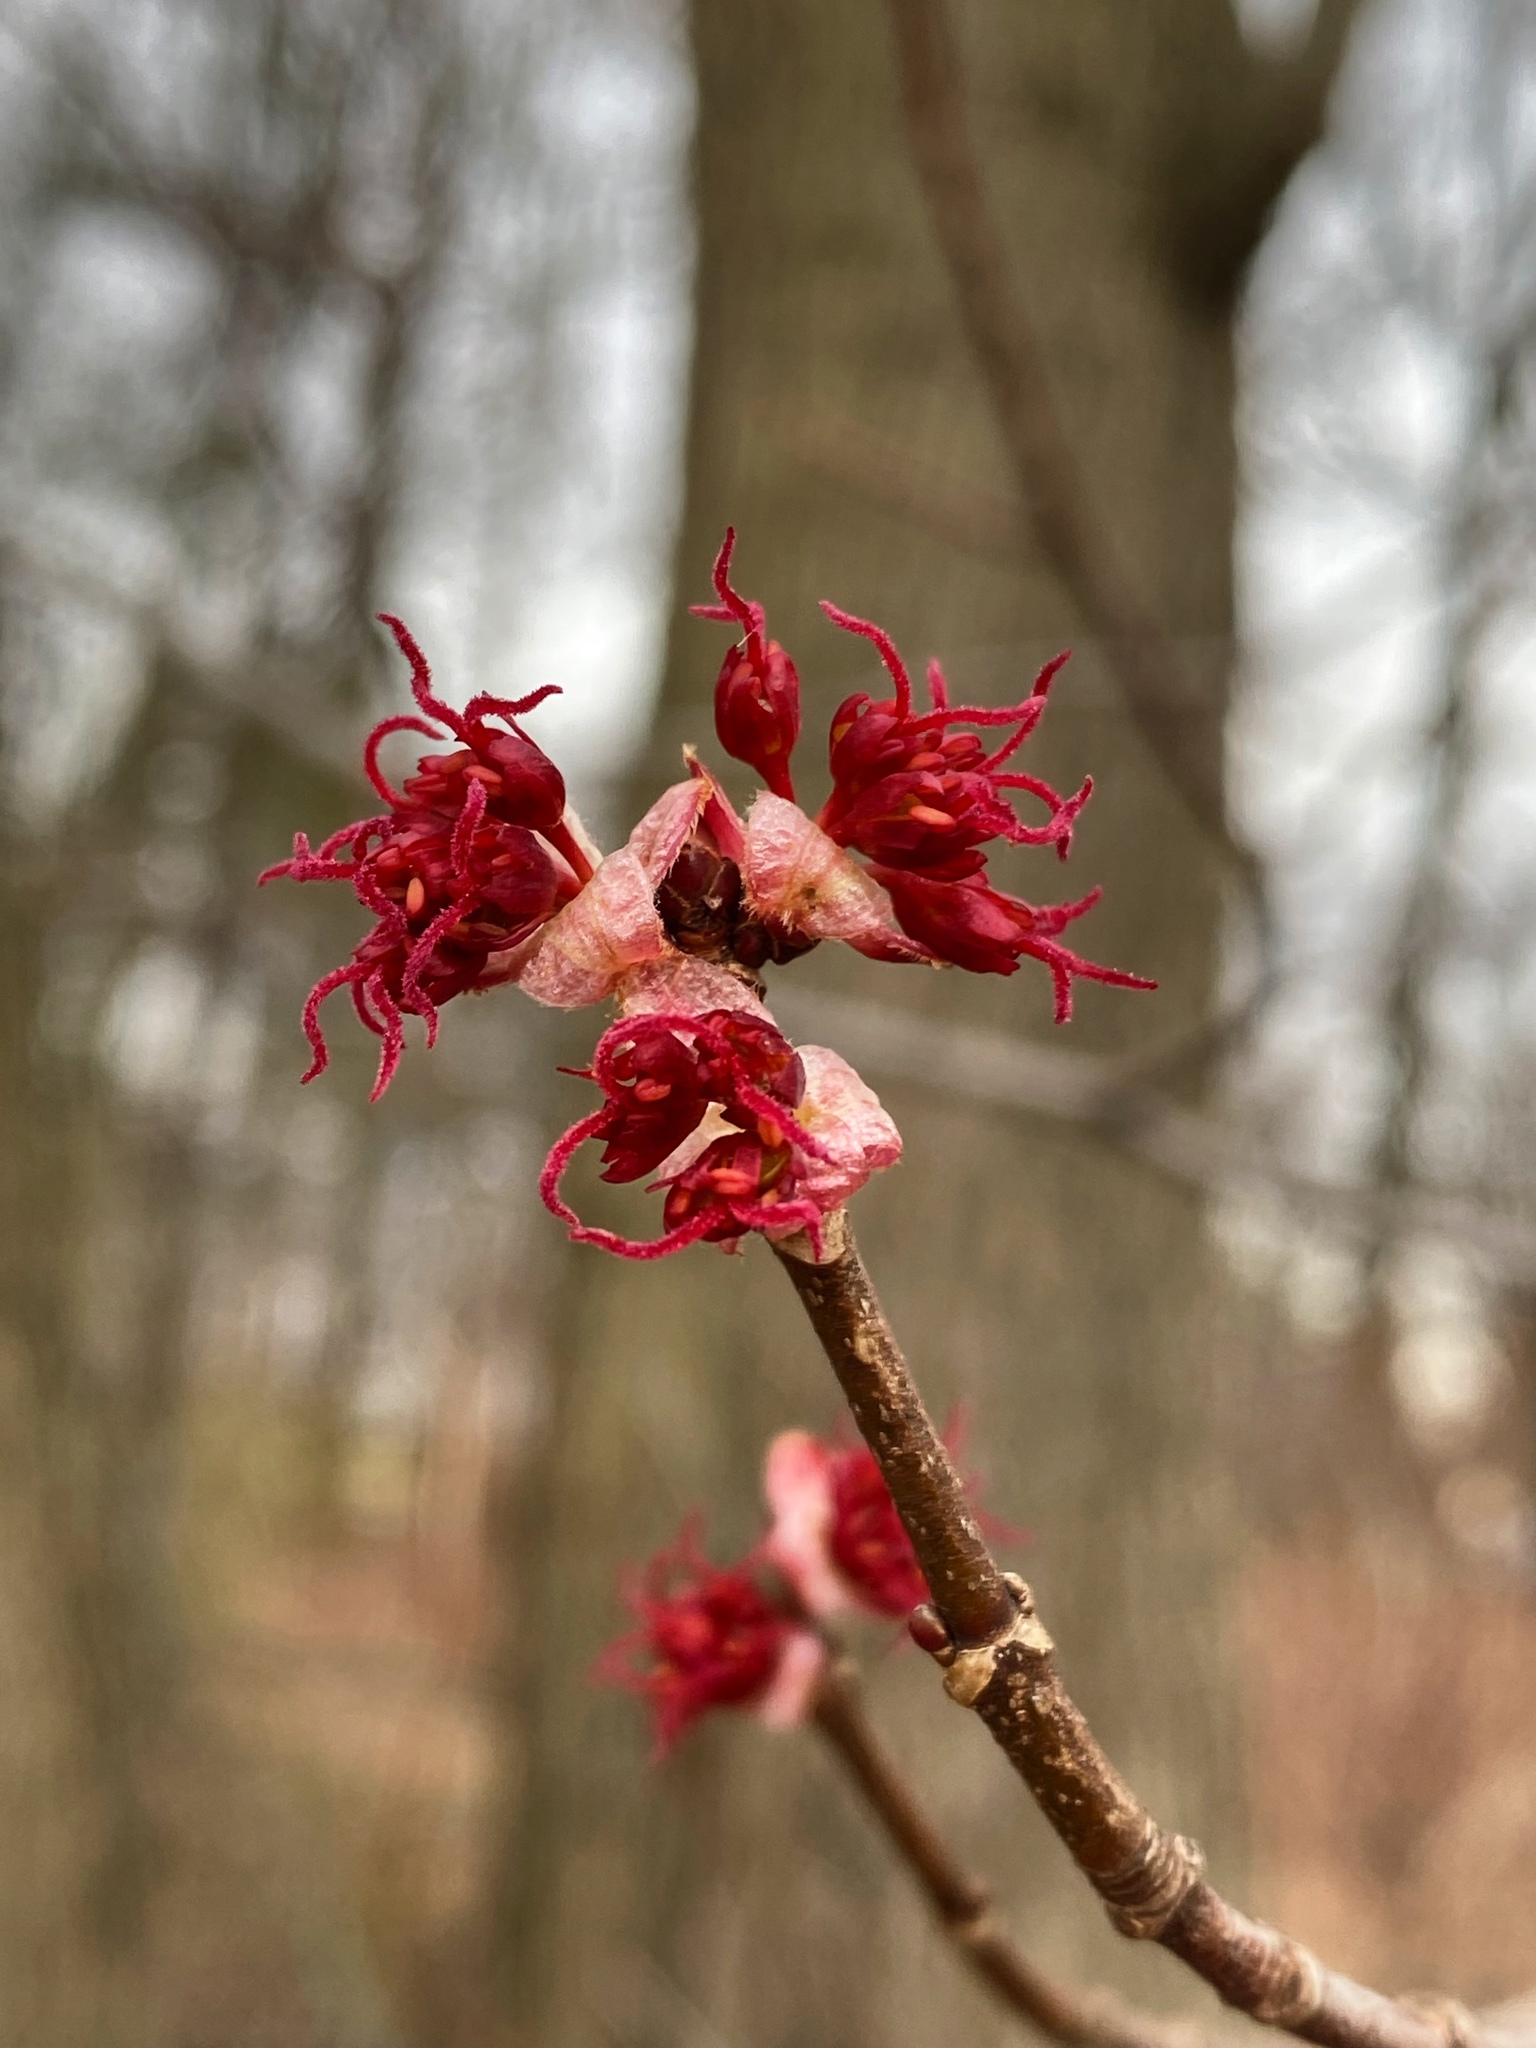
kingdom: Plantae
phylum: Tracheophyta
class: Magnoliopsida
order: Sapindales
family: Sapindaceae
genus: Acer
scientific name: Acer rubrum
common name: Red maple
